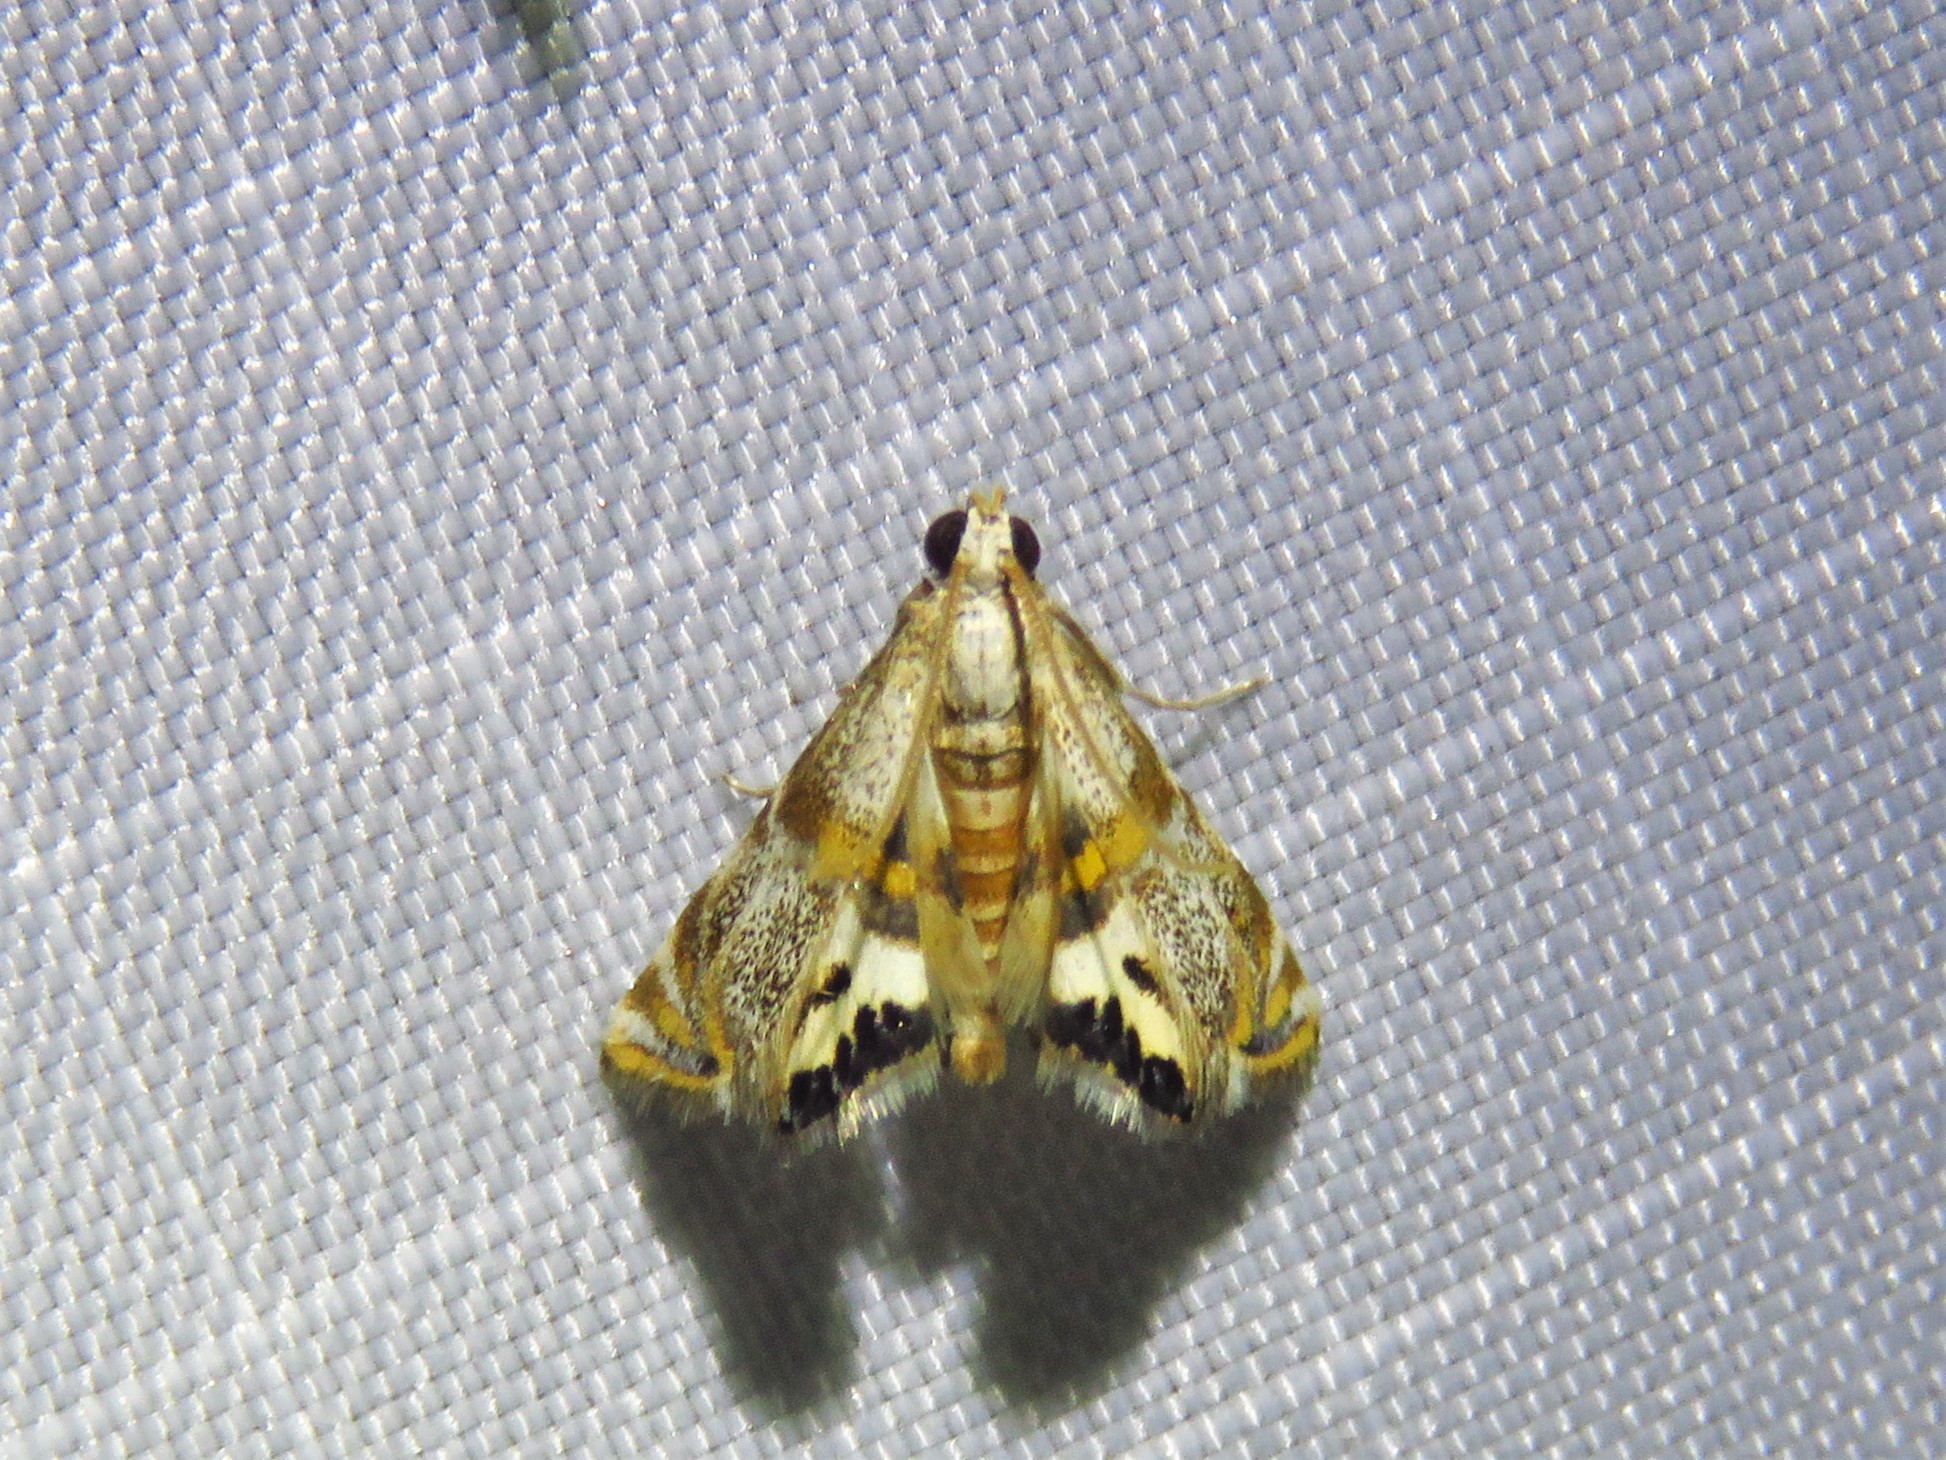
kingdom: Animalia
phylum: Arthropoda
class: Insecta
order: Lepidoptera
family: Crambidae
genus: Petrophila
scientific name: Petrophila bifascialis
